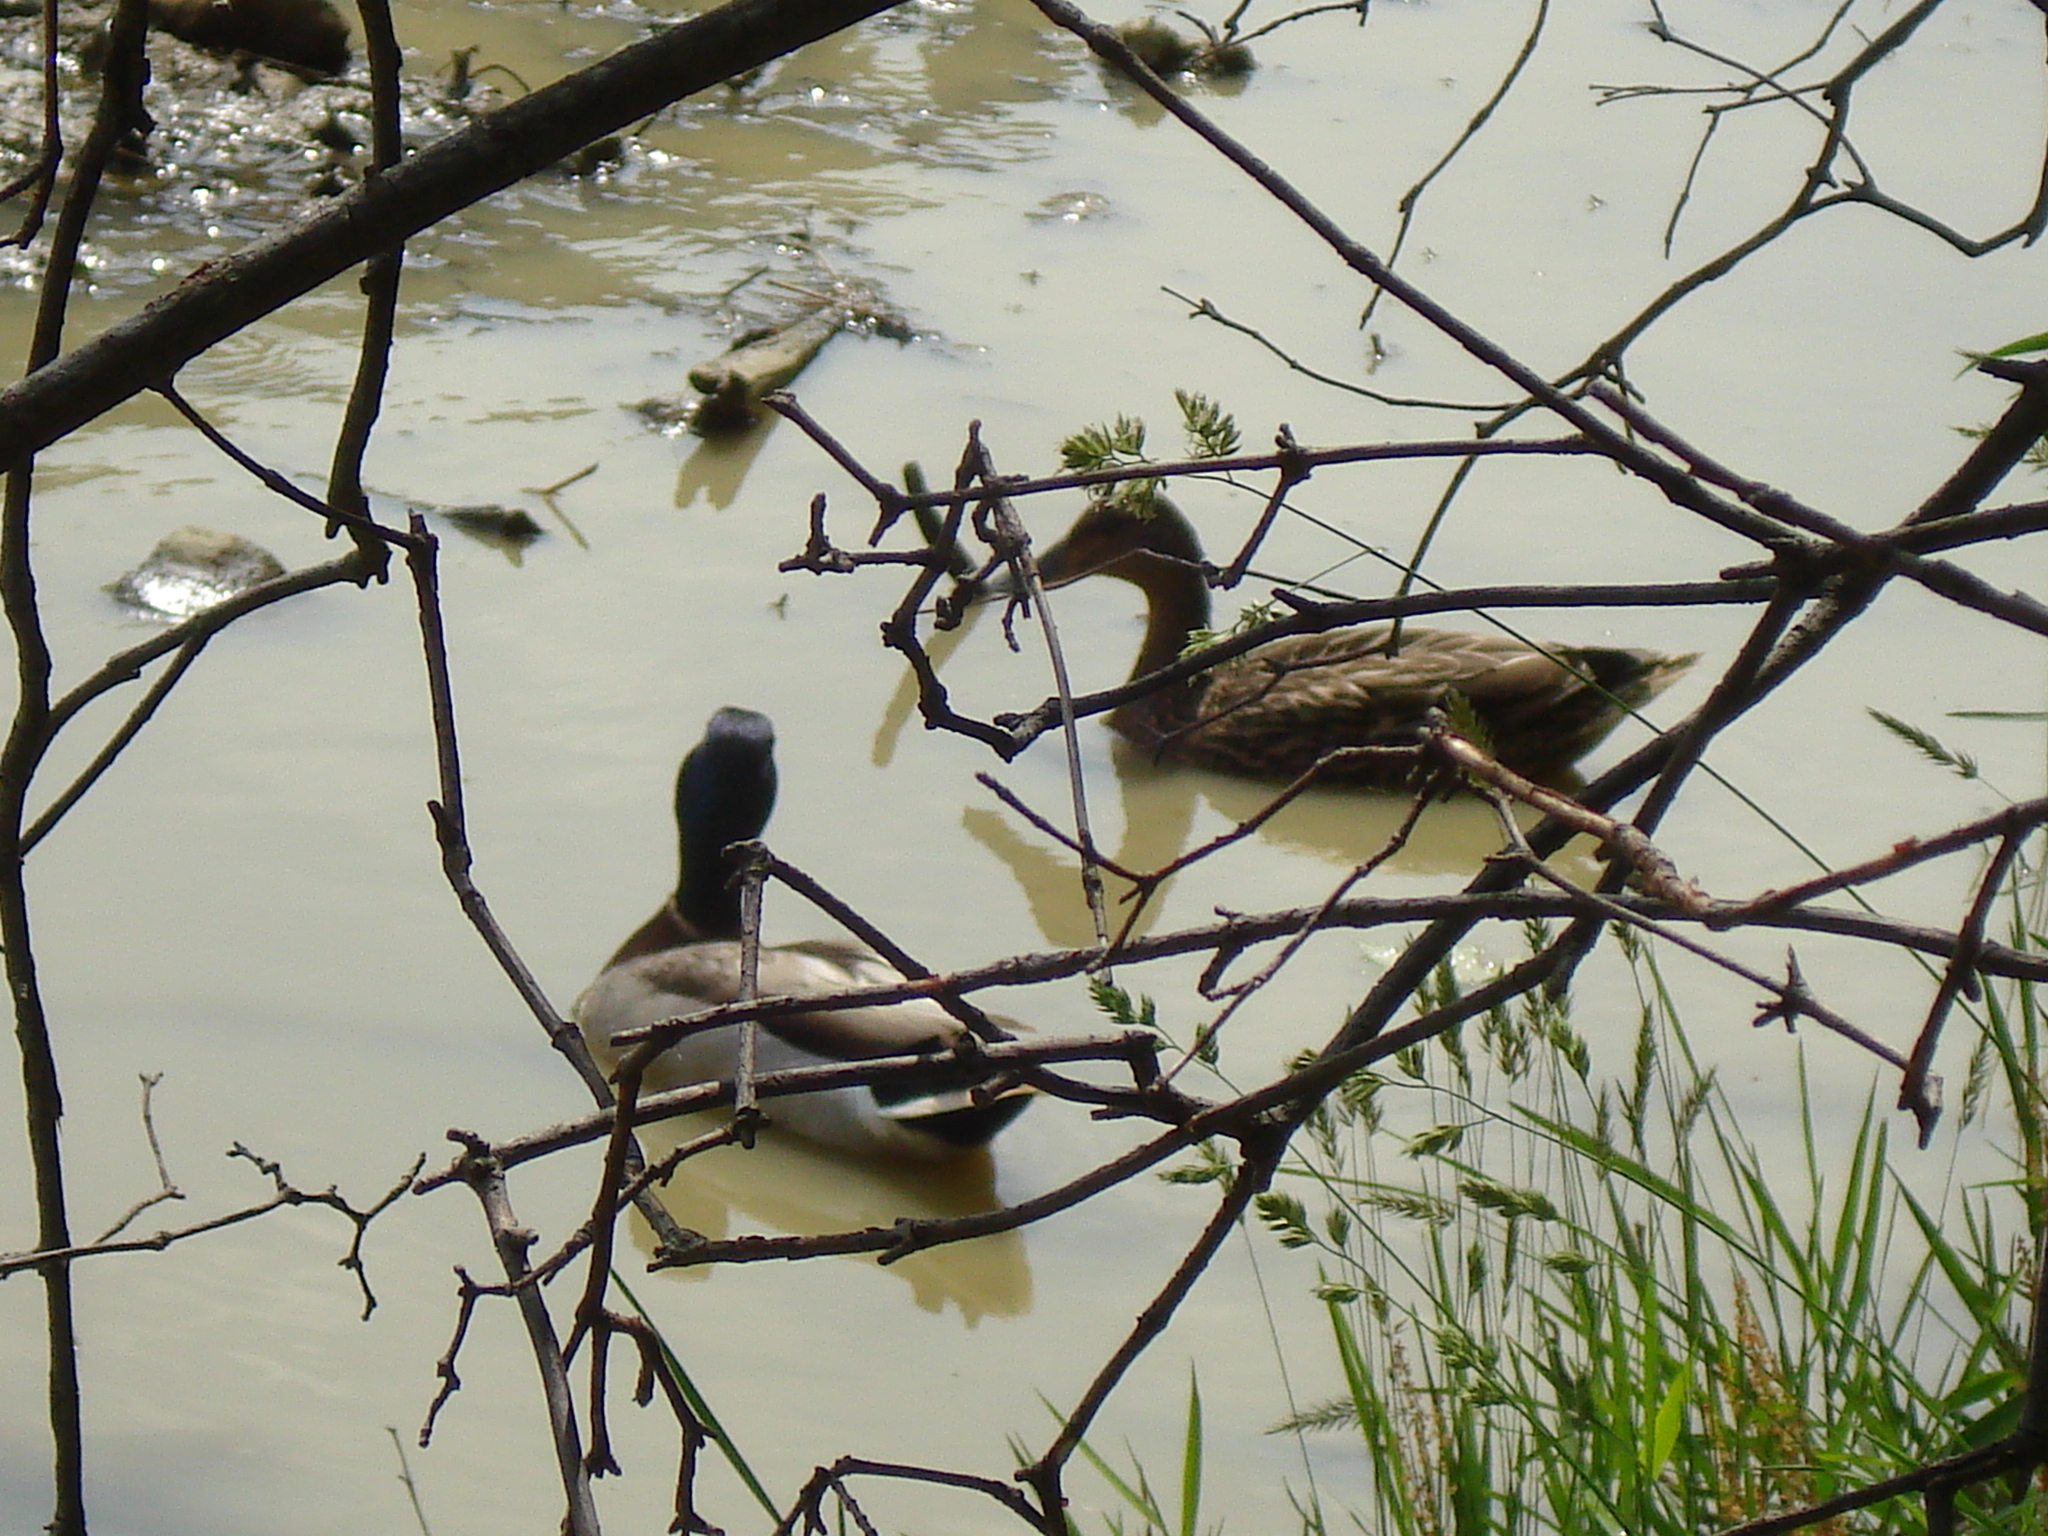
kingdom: Animalia
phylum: Chordata
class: Aves
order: Anseriformes
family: Anatidae
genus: Anas
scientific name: Anas platyrhynchos
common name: Mallard
